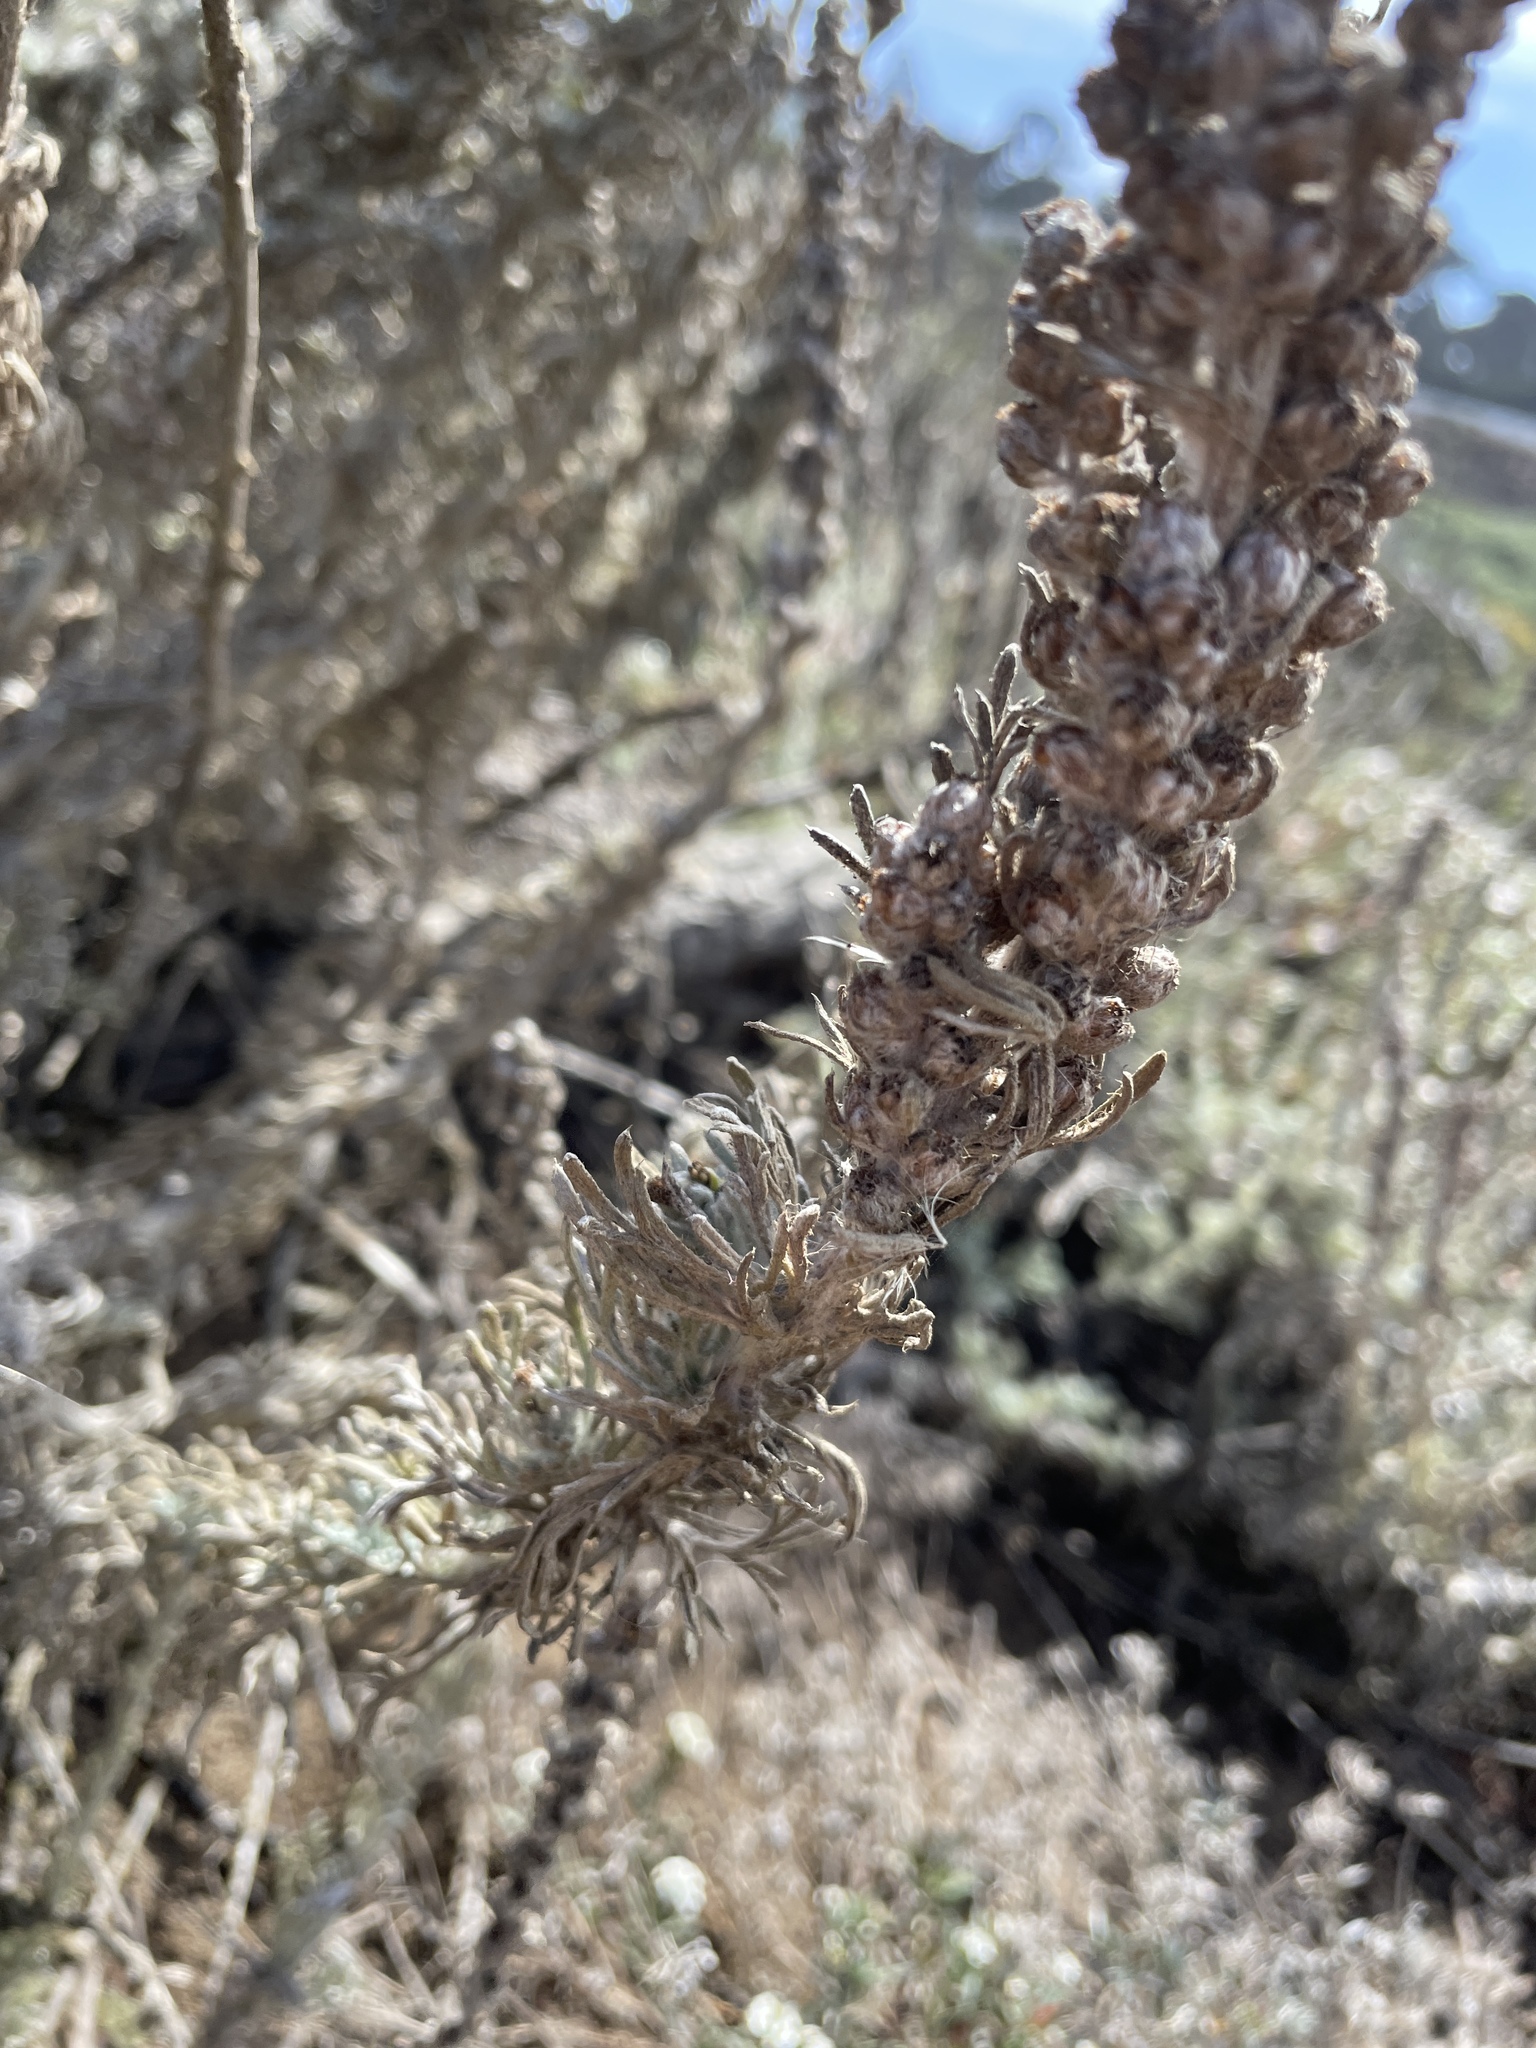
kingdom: Plantae
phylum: Tracheophyta
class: Magnoliopsida
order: Asterales
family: Asteraceae
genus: Artemisia
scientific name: Artemisia pycnocephala
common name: Coastal sagewort
